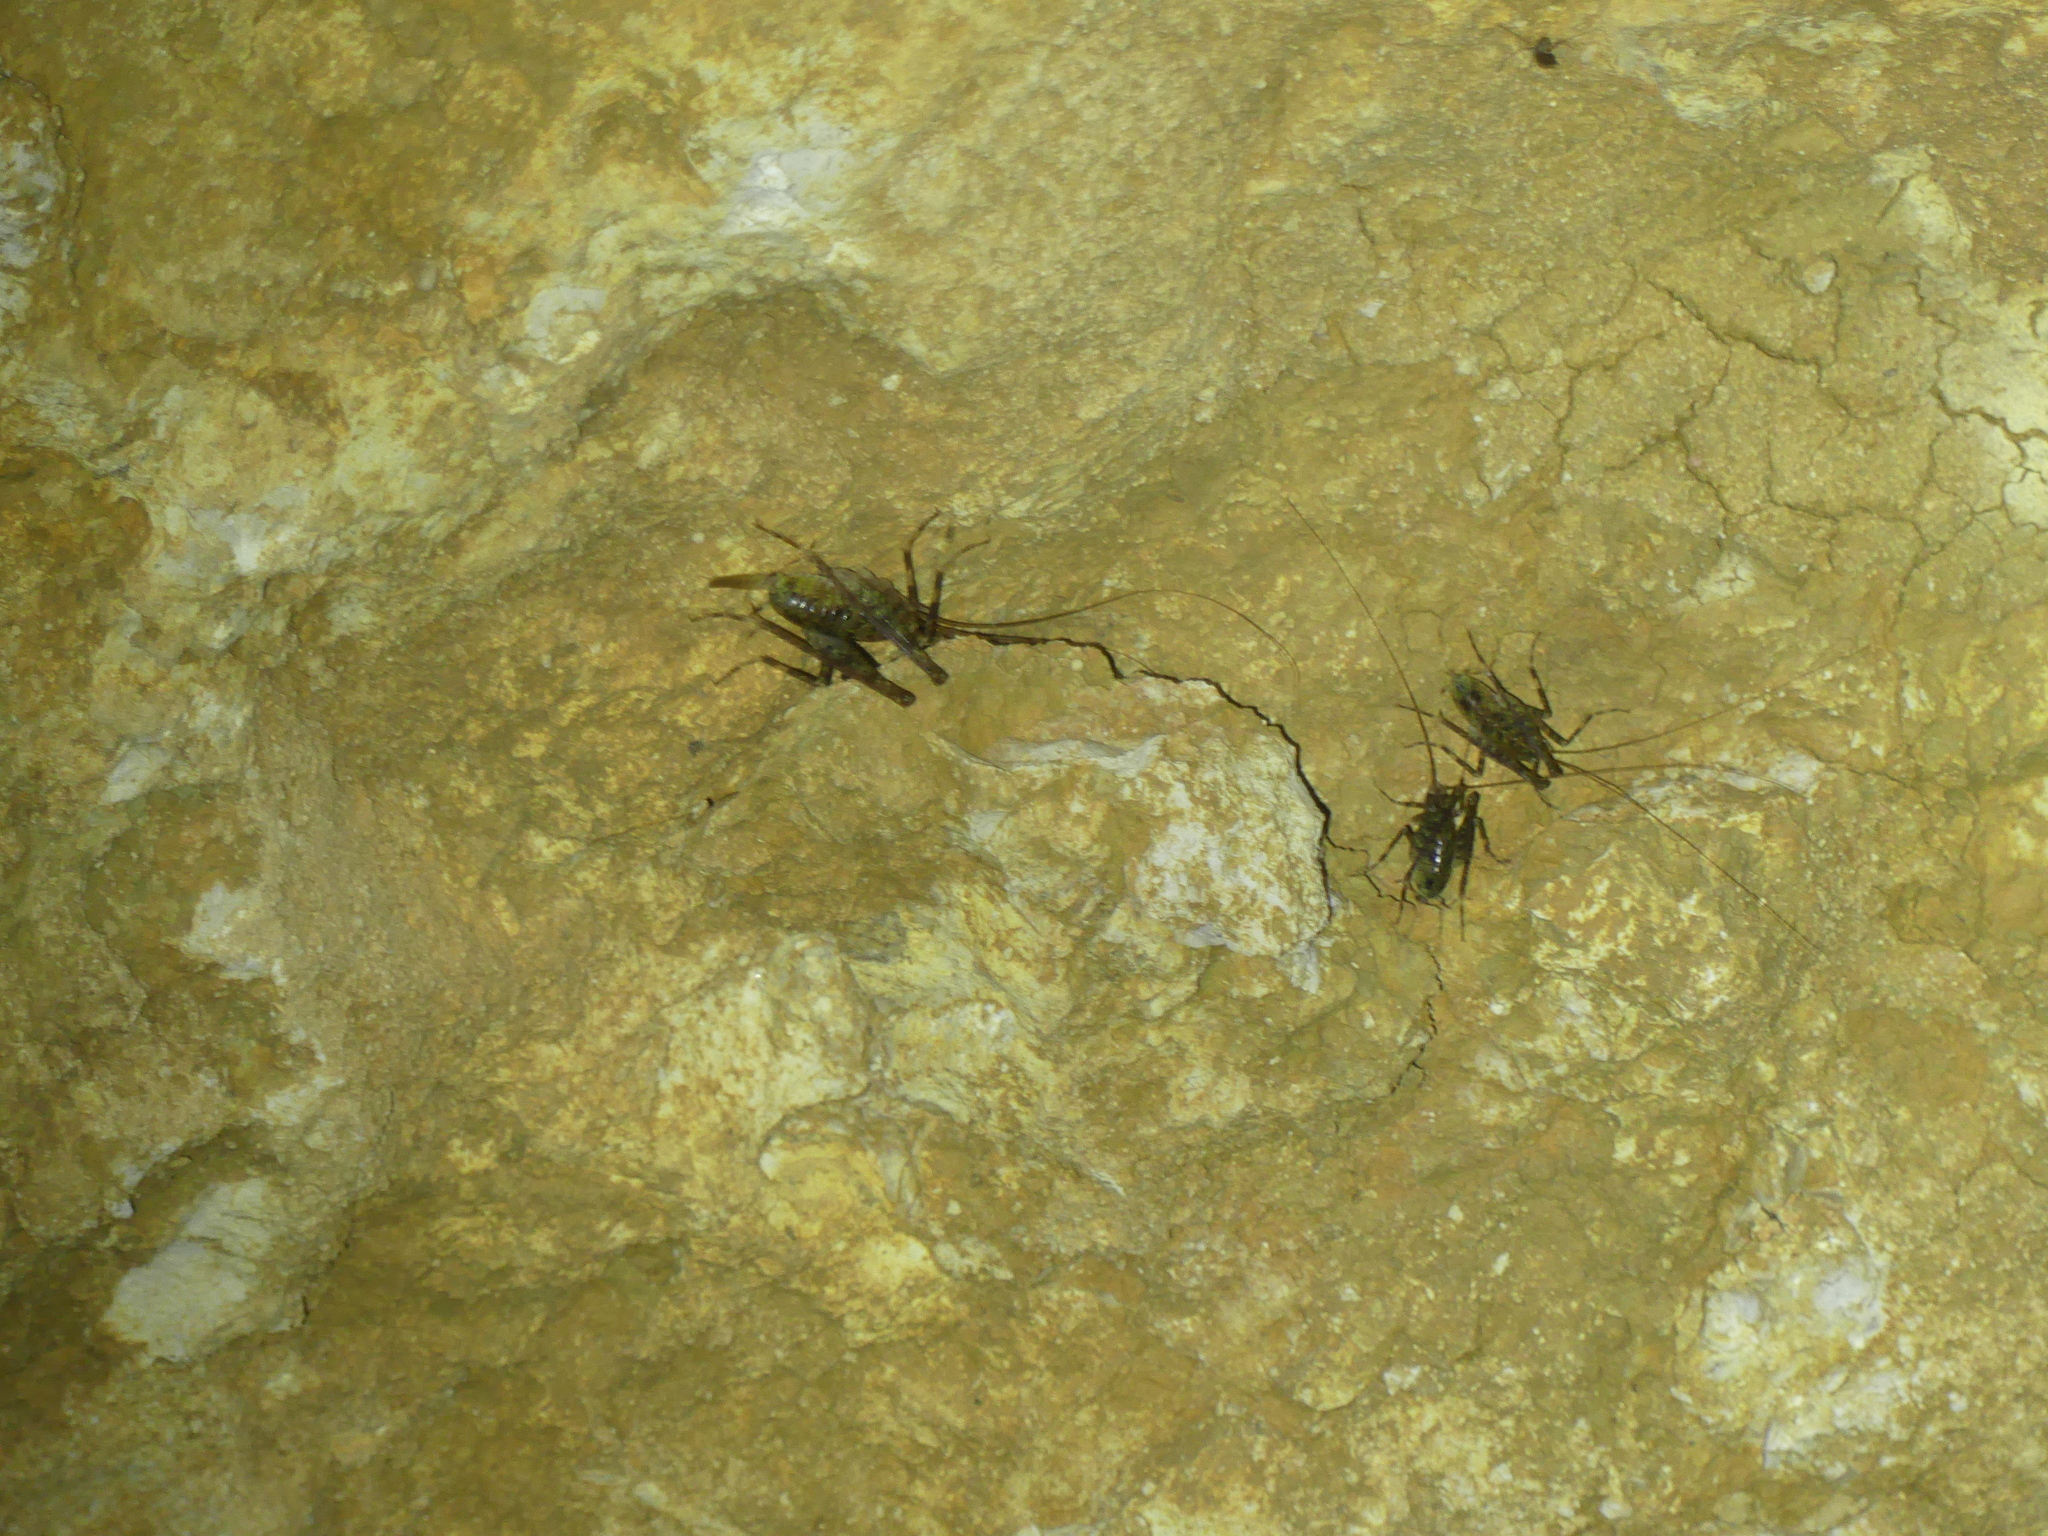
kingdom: Animalia
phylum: Arthropoda
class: Insecta
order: Orthoptera
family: Rhaphidophoridae
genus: Troglophilus
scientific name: Troglophilus neglectus
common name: Neglected cave-cricket
